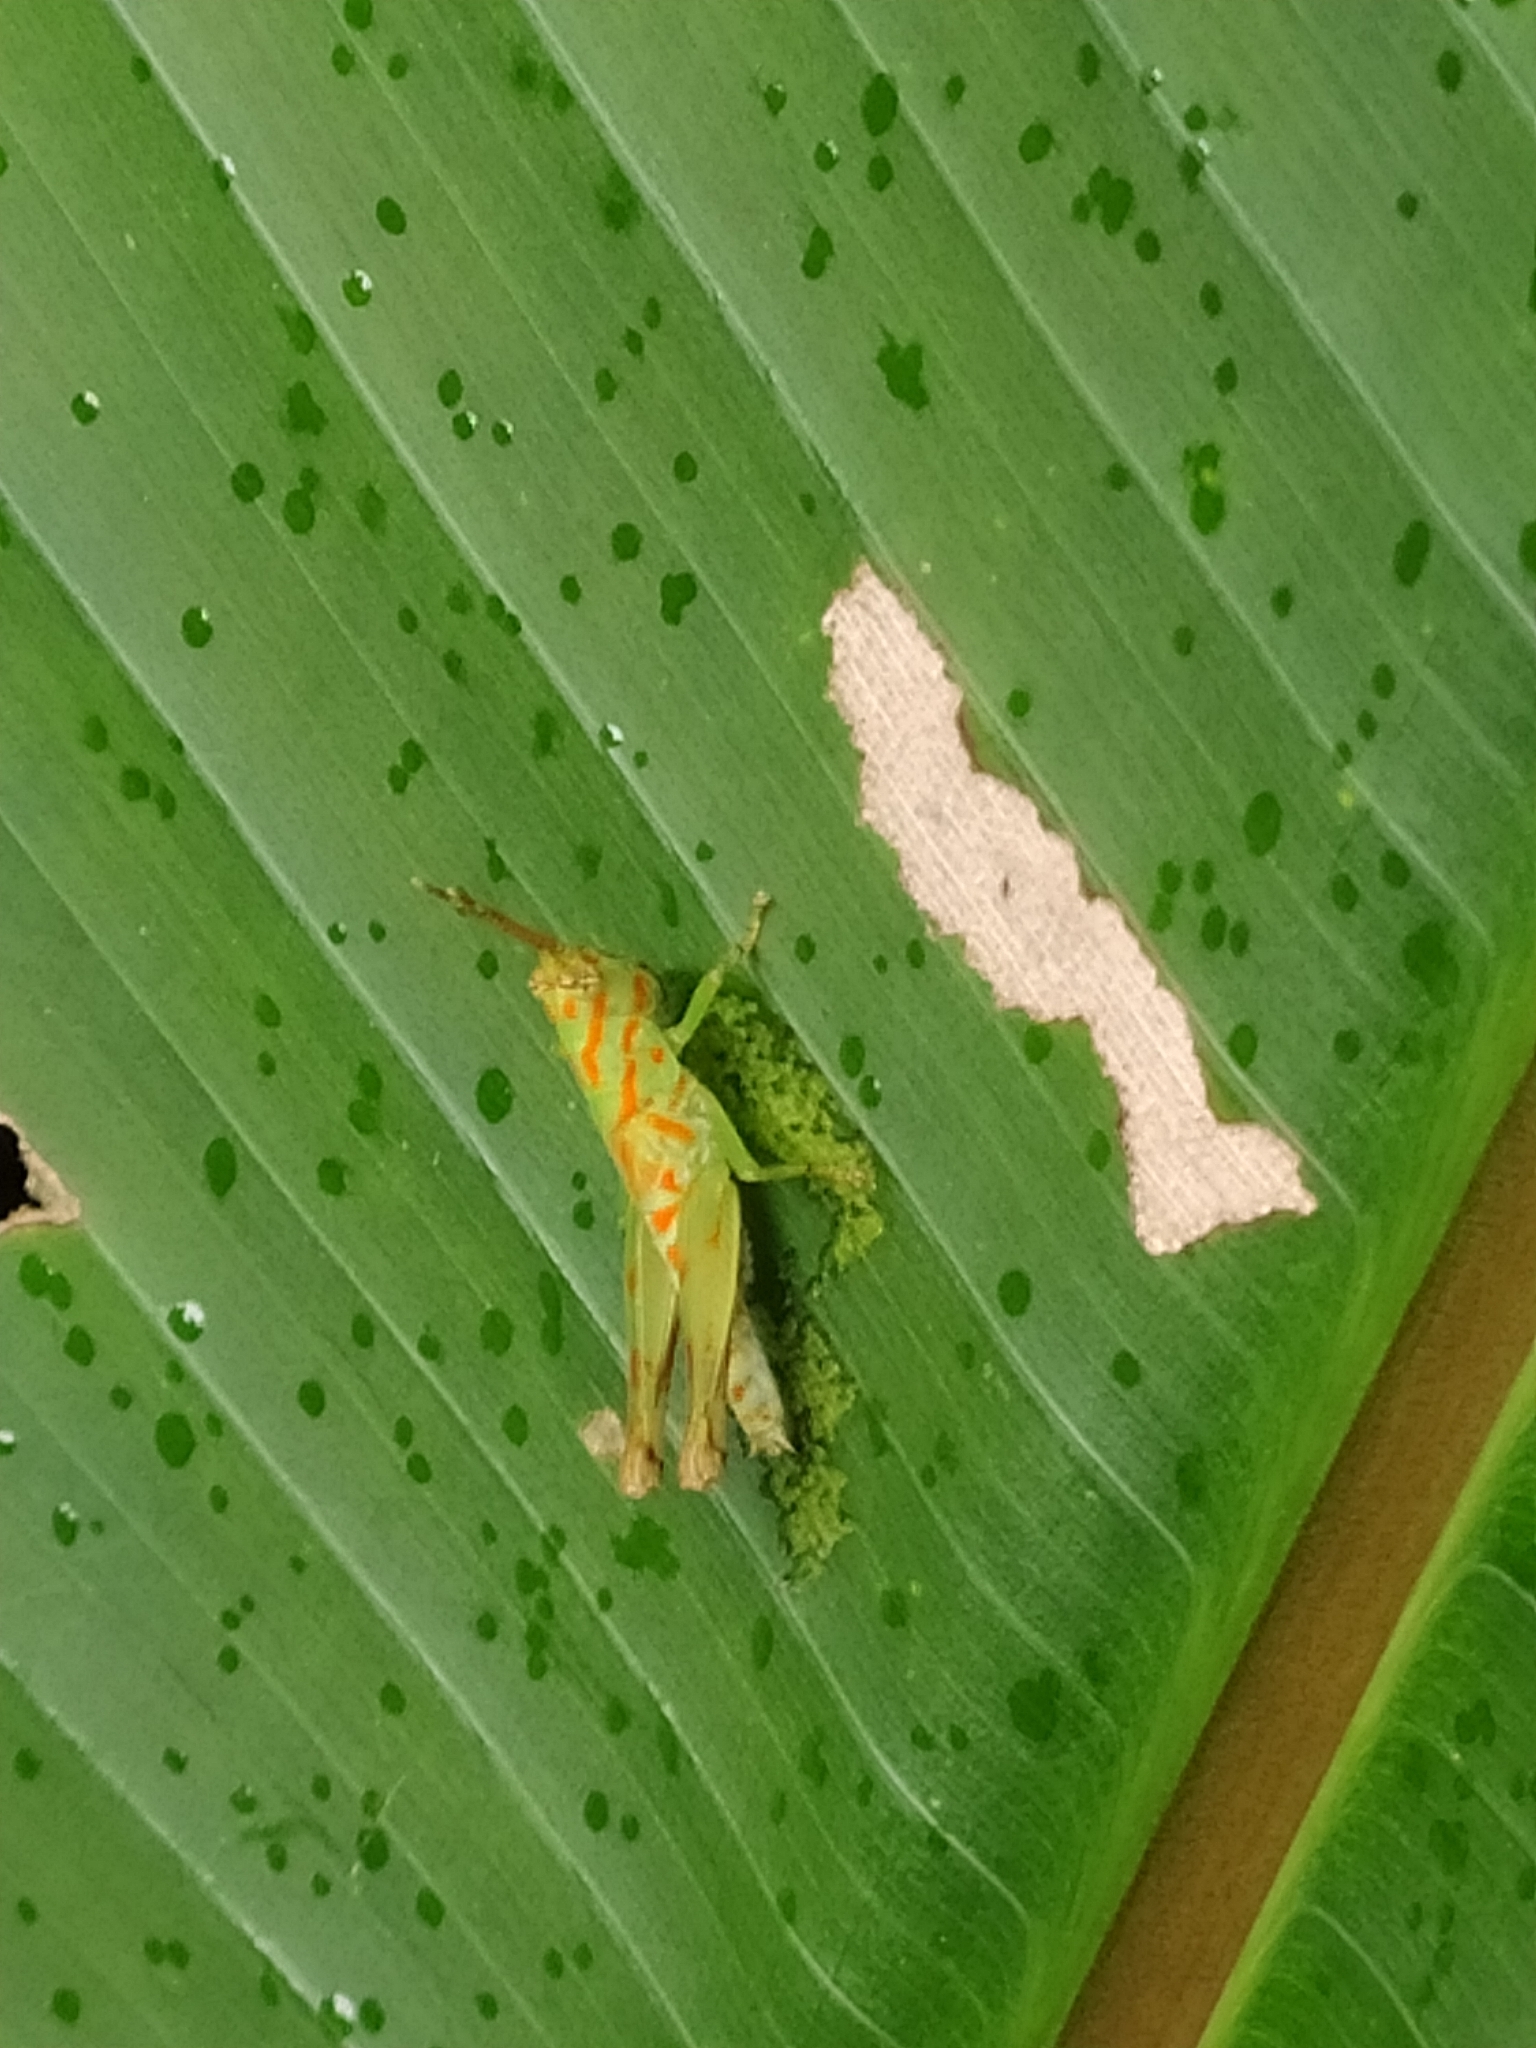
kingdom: Animalia
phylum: Arthropoda
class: Insecta
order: Orthoptera
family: Acrididae
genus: Cornops
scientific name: Cornops
